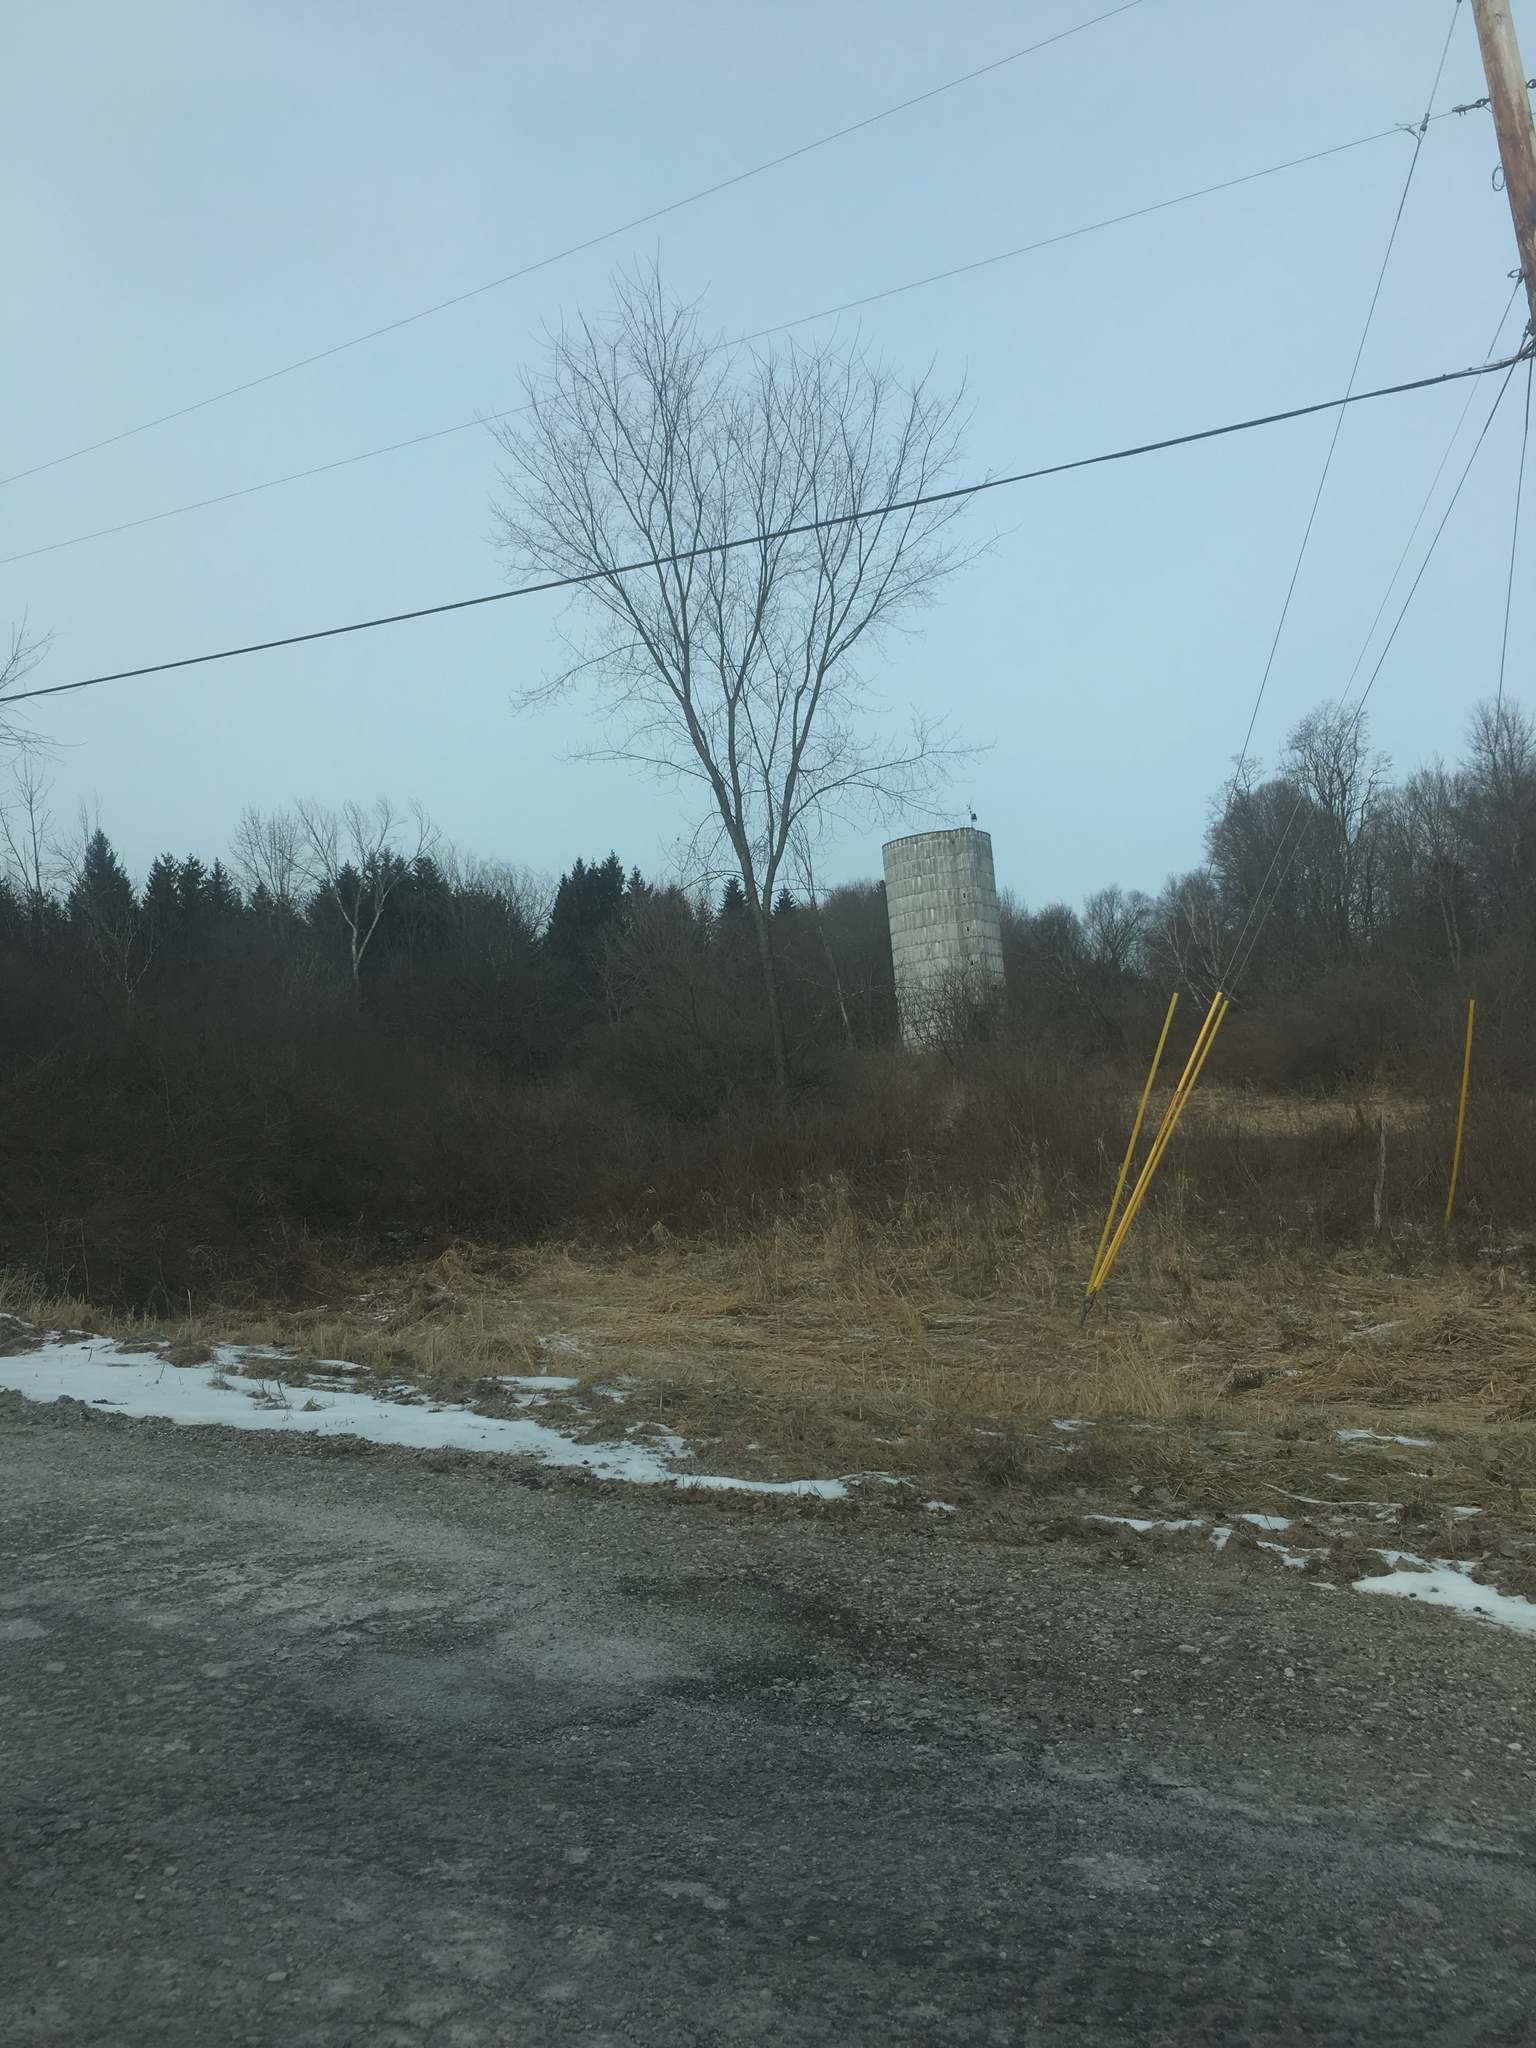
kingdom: Plantae
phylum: Tracheophyta
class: Magnoliopsida
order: Rosales
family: Ulmaceae
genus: Ulmus
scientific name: Ulmus americana
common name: American elm
